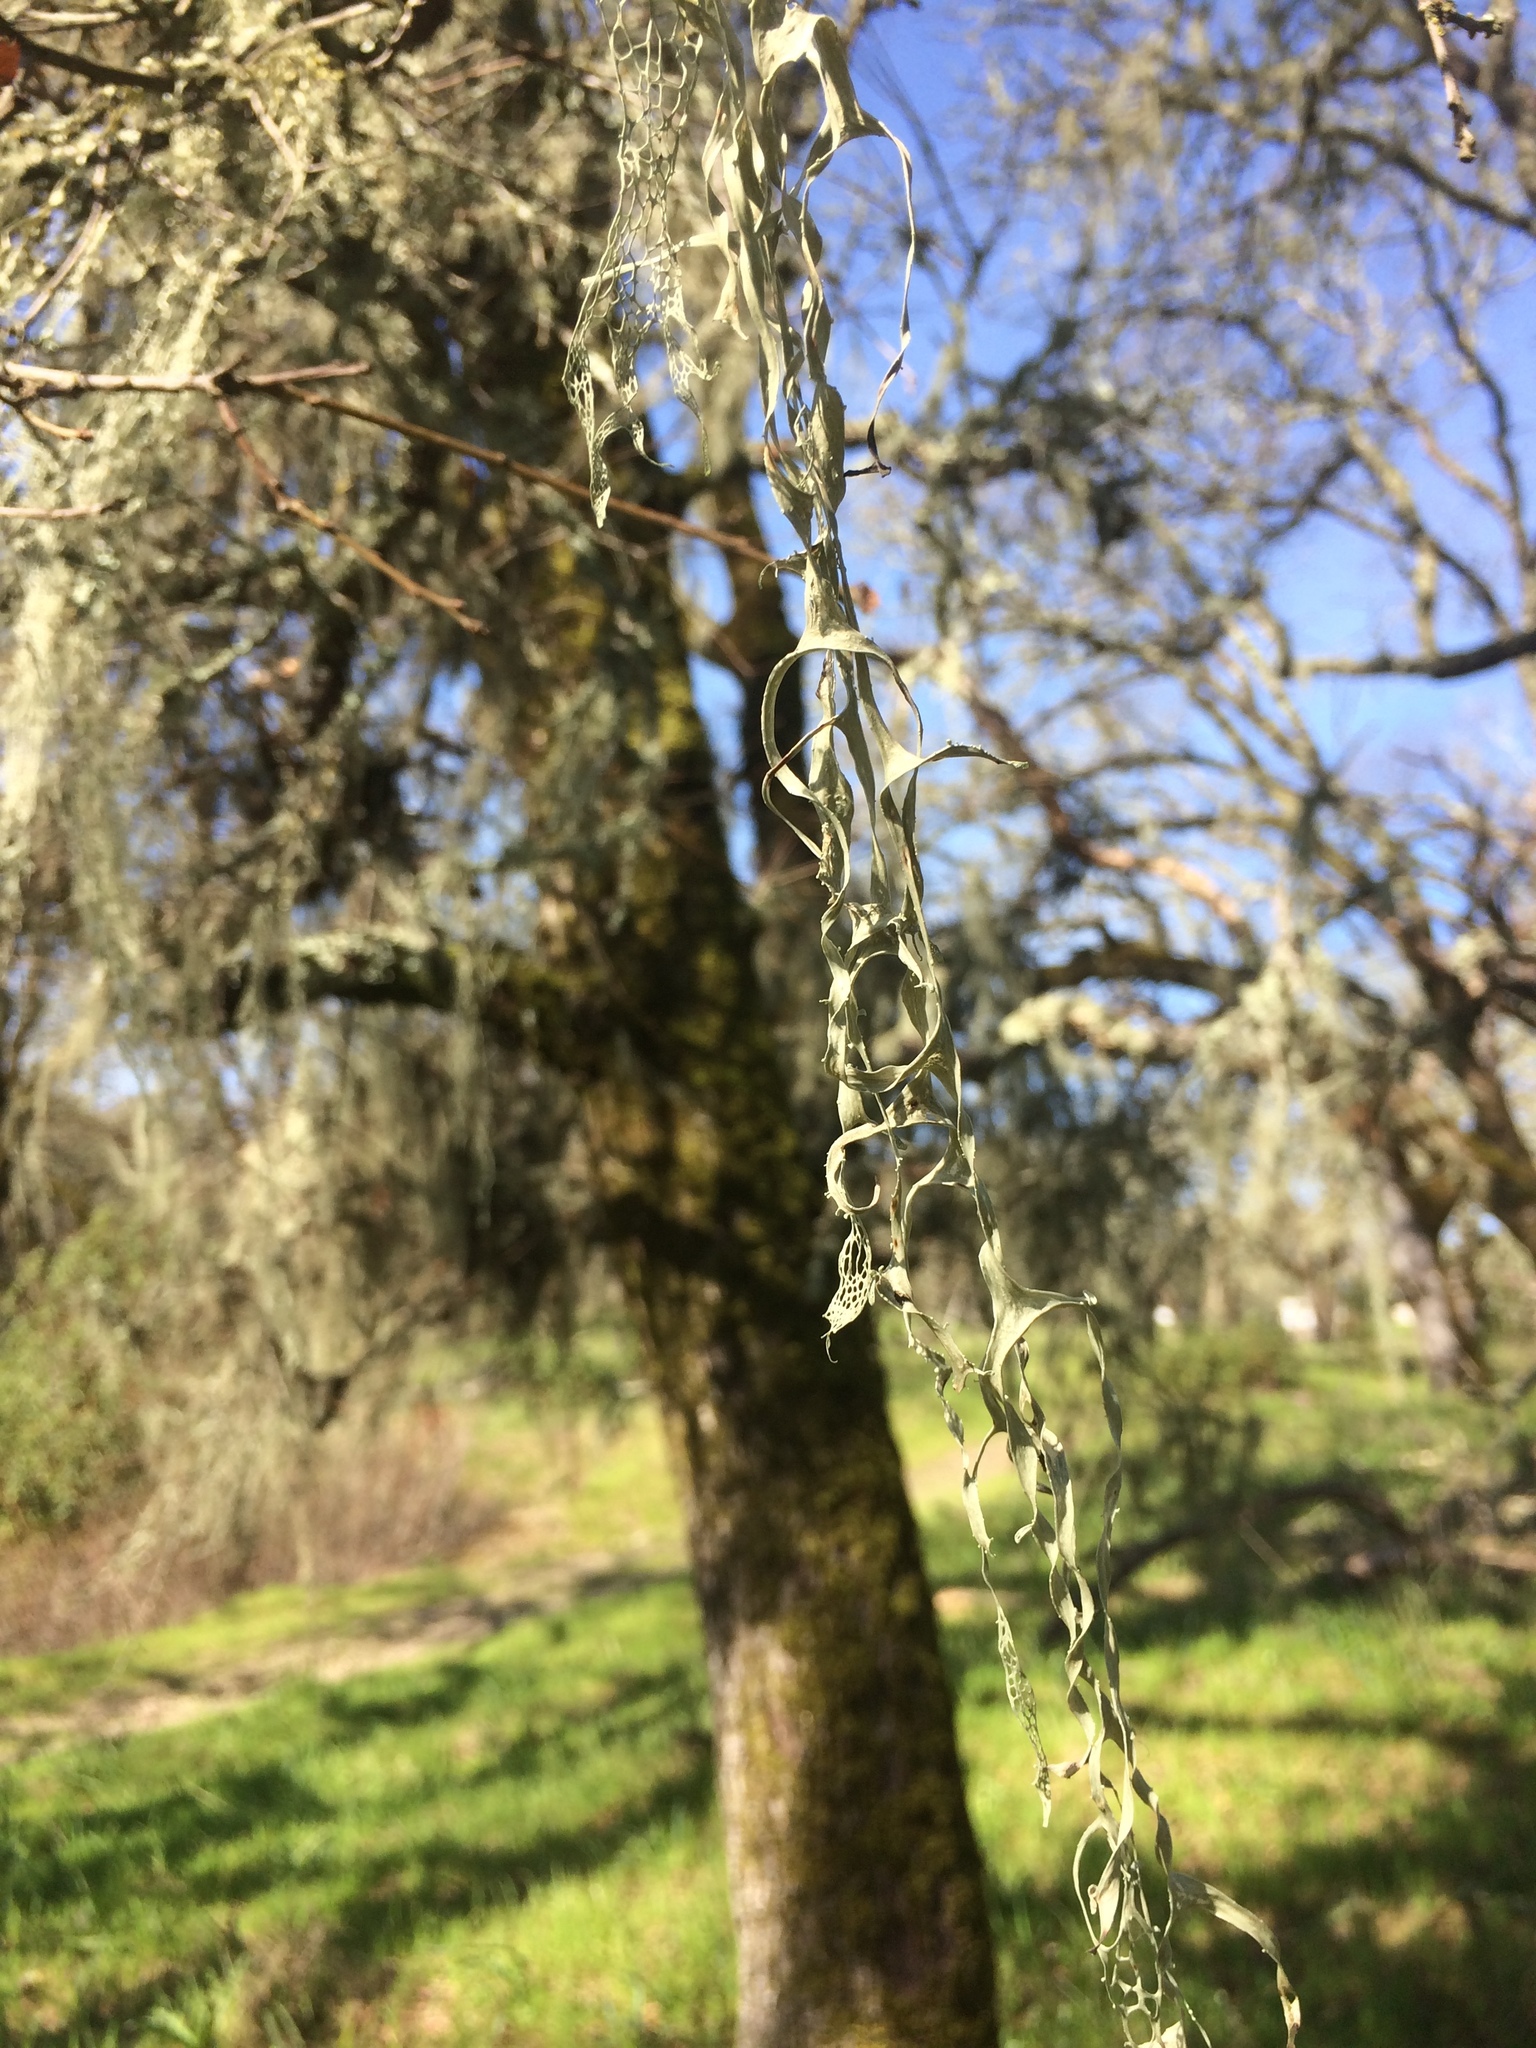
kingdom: Fungi
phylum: Ascomycota
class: Lecanoromycetes
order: Lecanorales
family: Ramalinaceae
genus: Ramalina
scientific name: Ramalina menziesii
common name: Lace lichen
